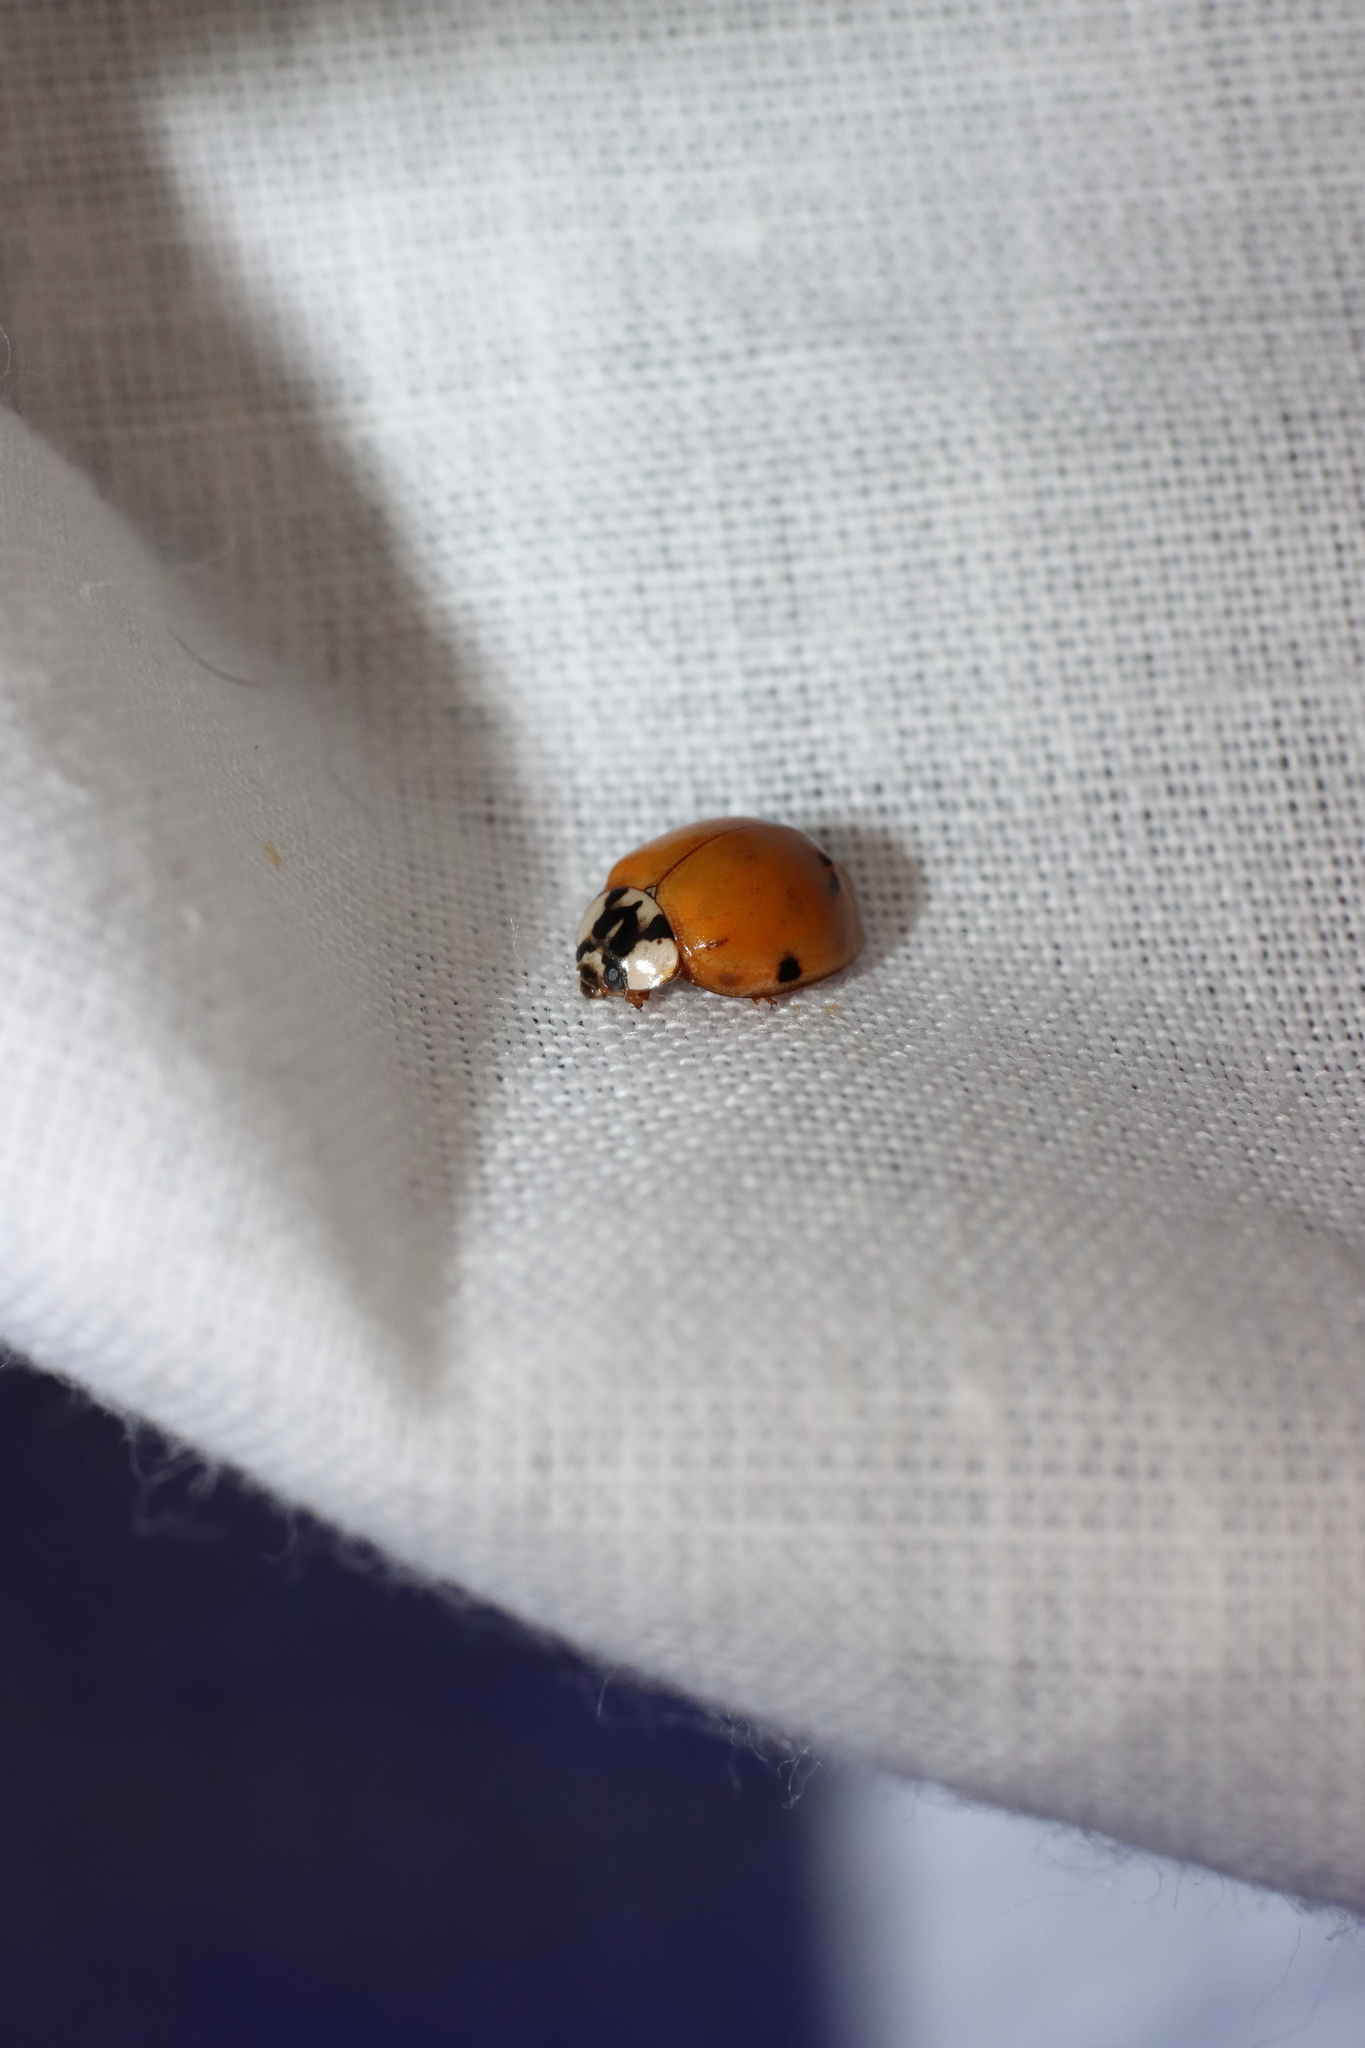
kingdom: Animalia
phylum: Arthropoda
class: Insecta
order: Coleoptera
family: Coccinellidae
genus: Harmonia
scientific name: Harmonia axyridis
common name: Harlequin ladybird
